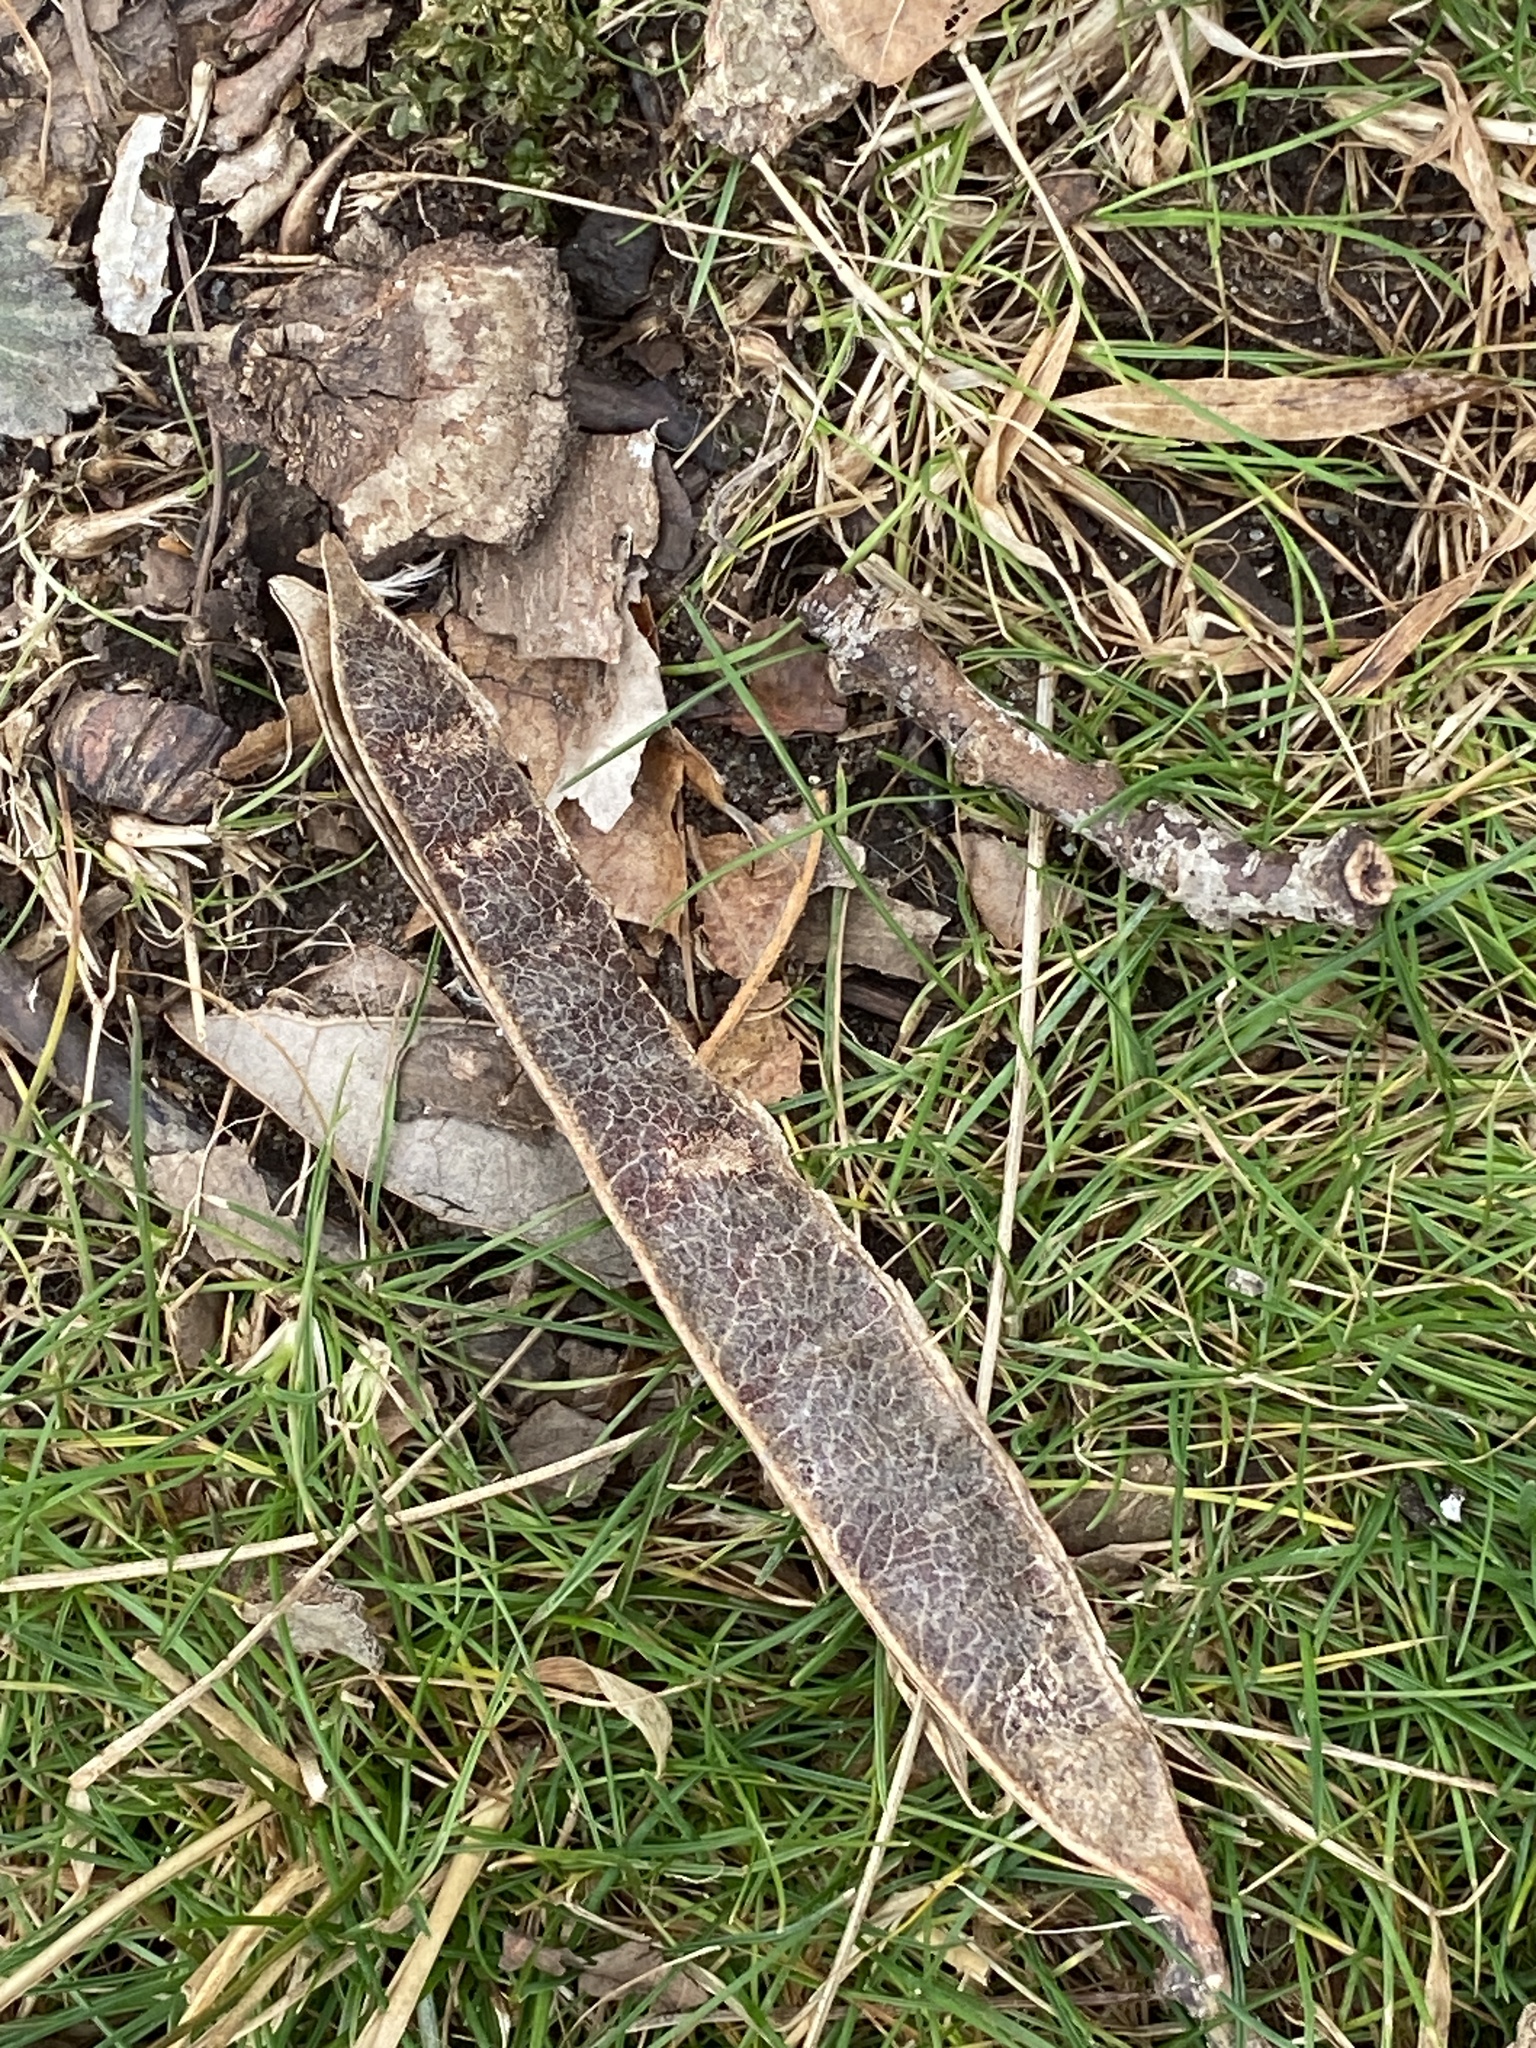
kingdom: Plantae
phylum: Tracheophyta
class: Magnoliopsida
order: Fabales
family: Fabaceae
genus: Robinia
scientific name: Robinia pseudoacacia
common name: Black locust
